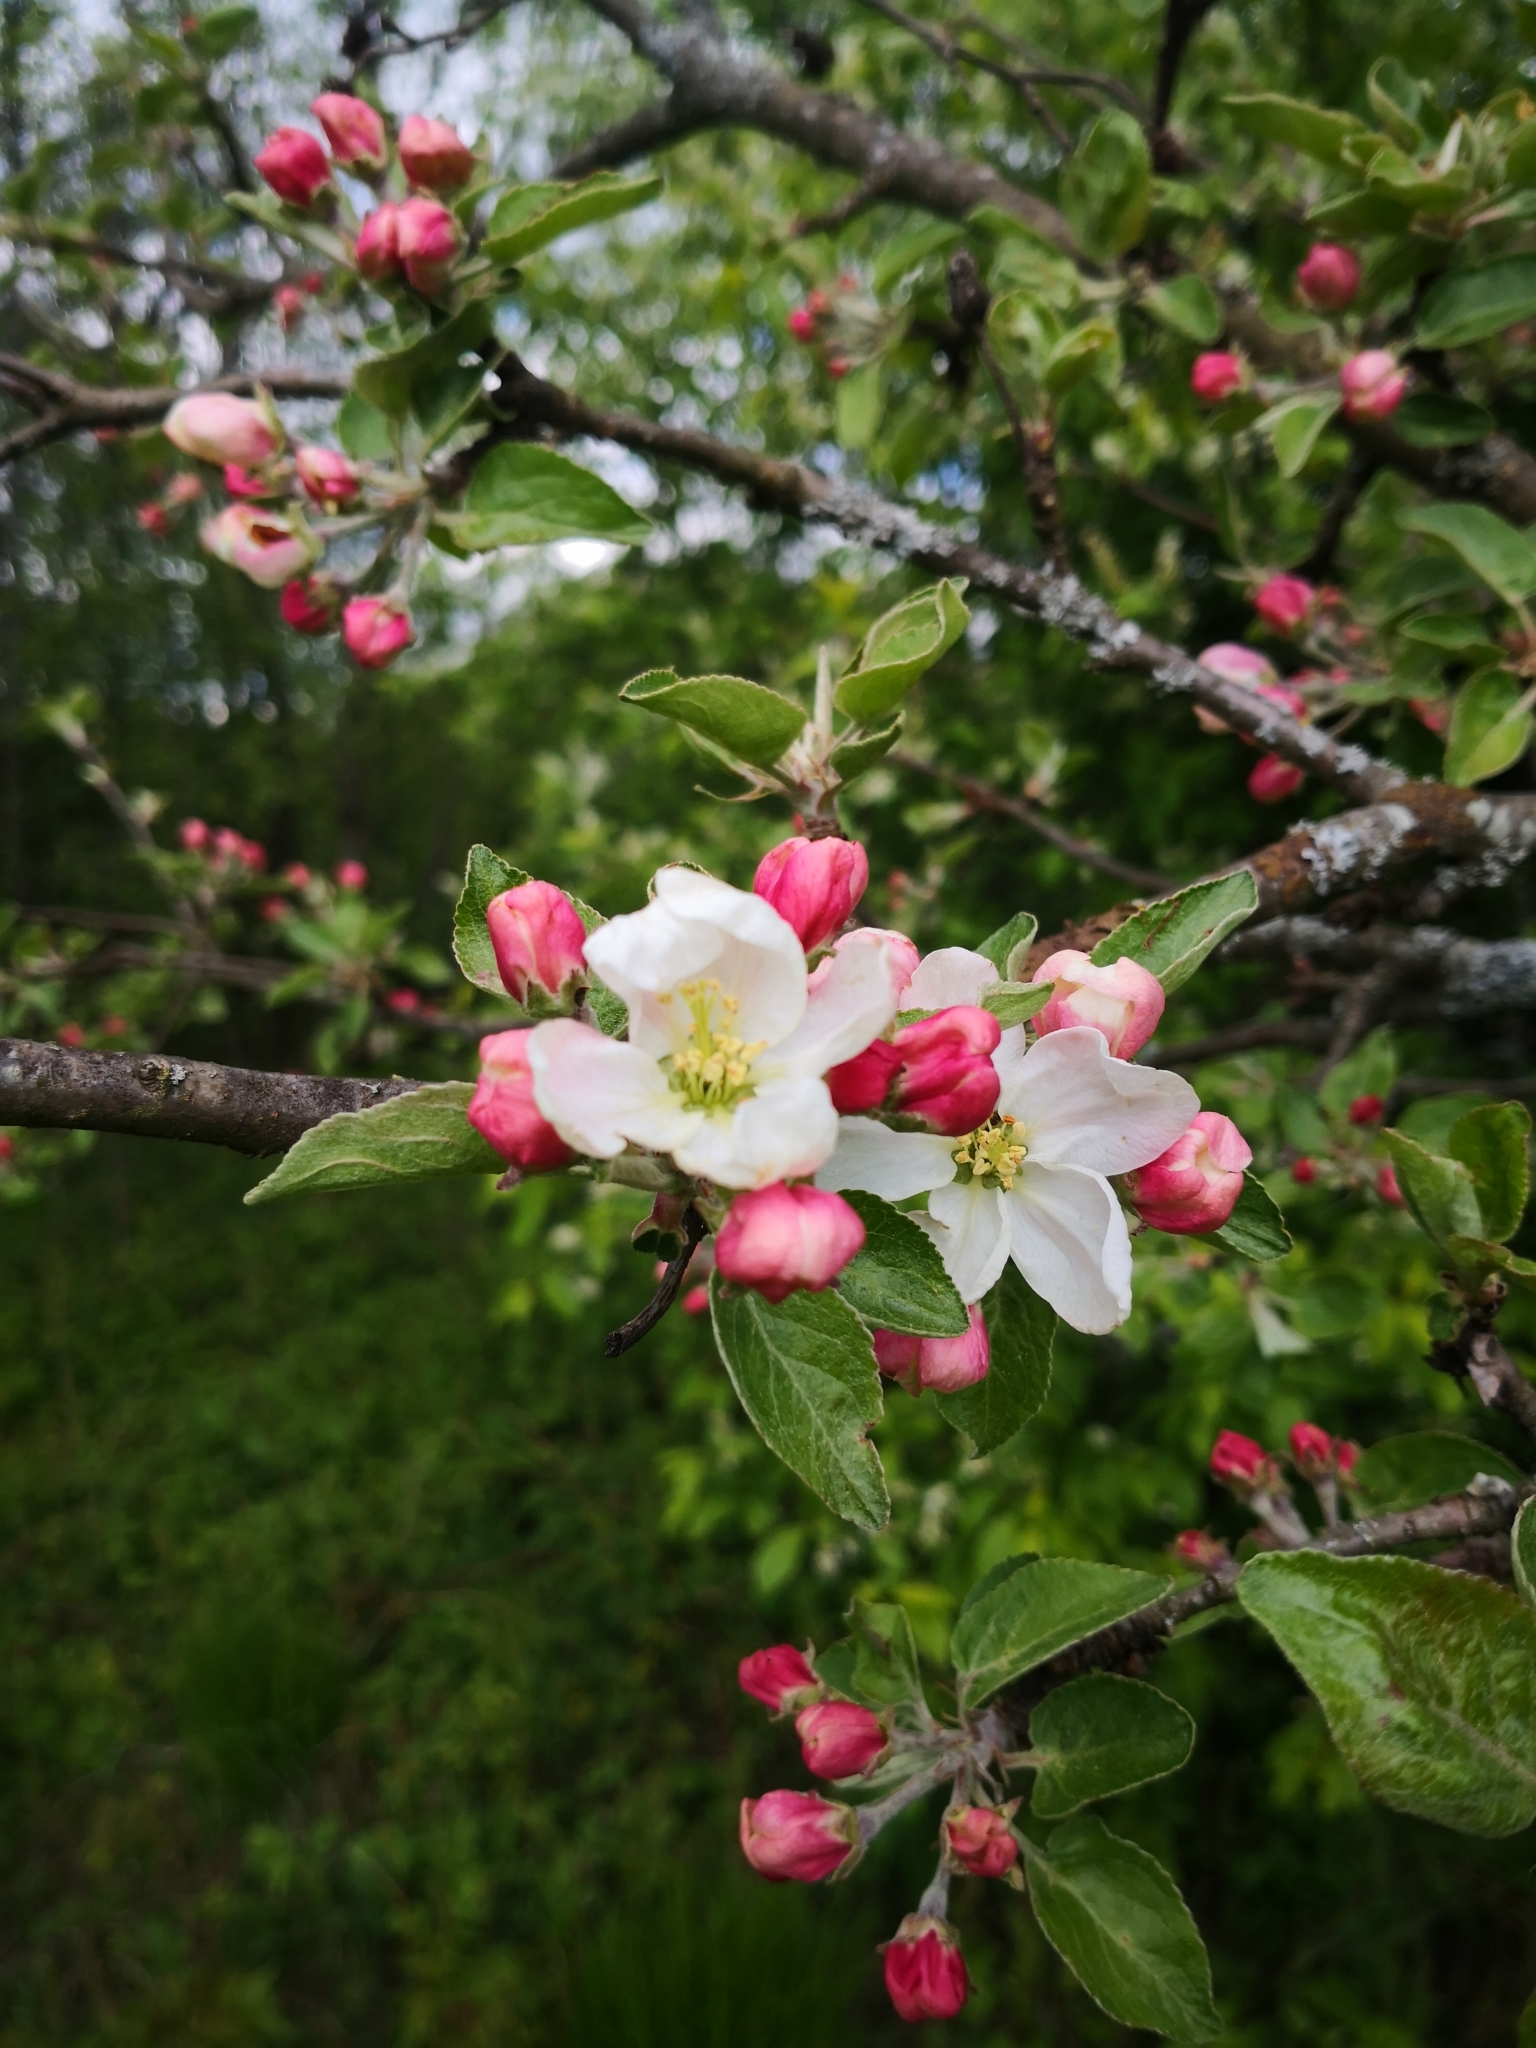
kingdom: Plantae
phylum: Tracheophyta
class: Magnoliopsida
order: Rosales
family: Rosaceae
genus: Malus
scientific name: Malus domestica
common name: Apple
